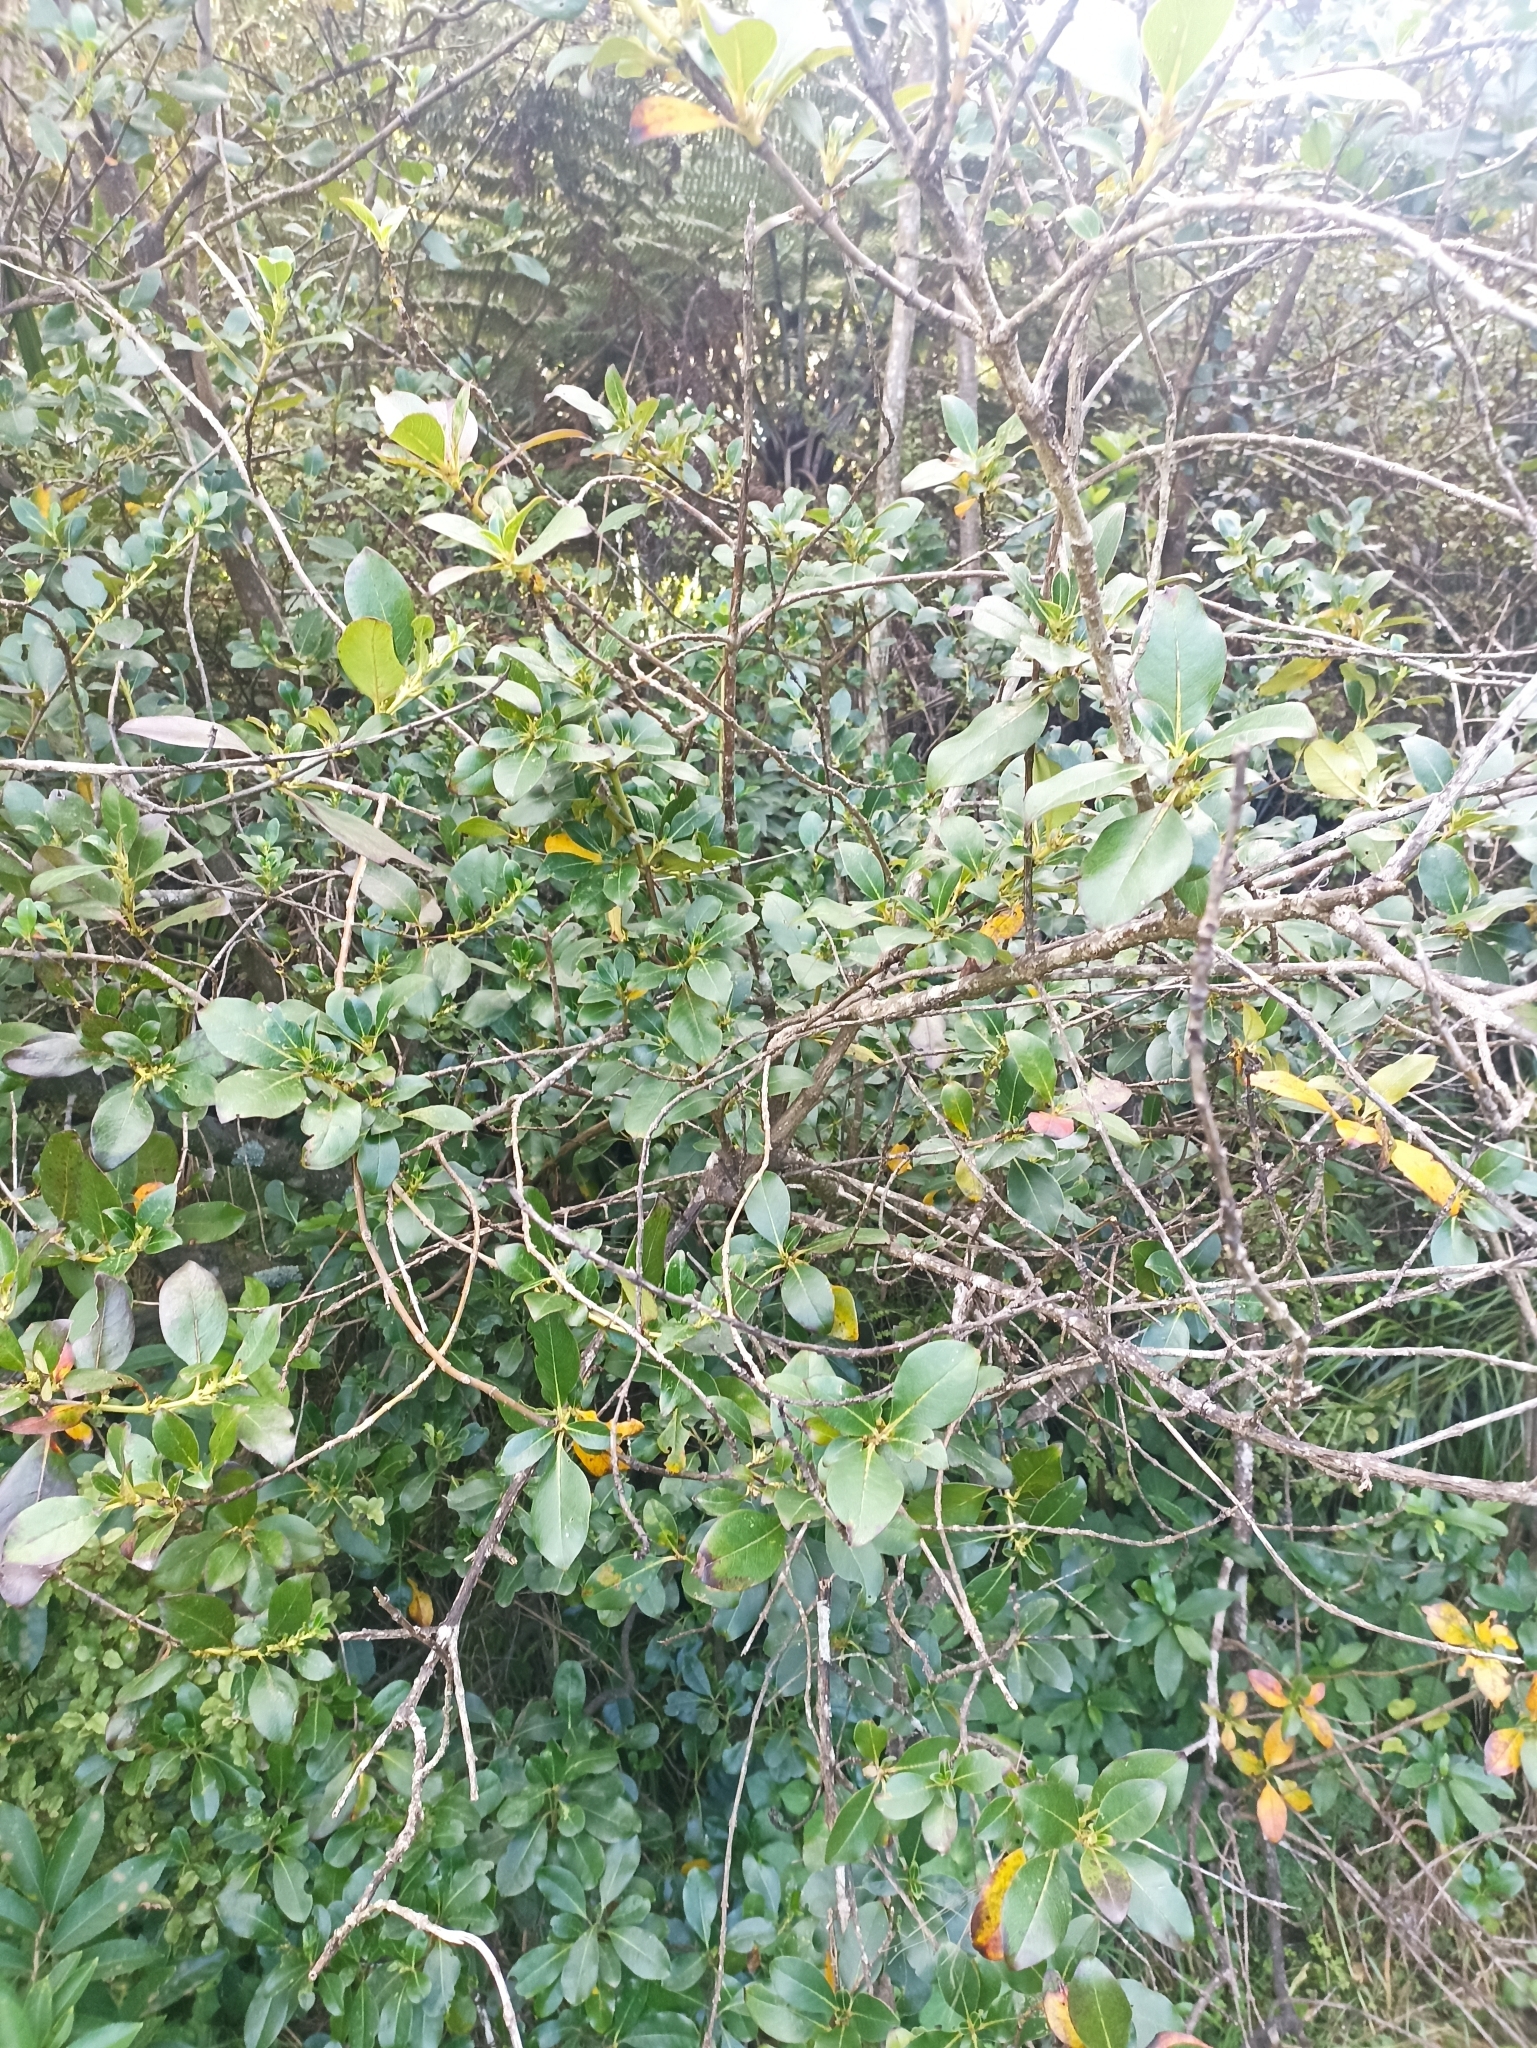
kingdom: Plantae
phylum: Tracheophyta
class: Magnoliopsida
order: Gentianales
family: Rubiaceae
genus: Coprosma
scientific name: Coprosma robusta
